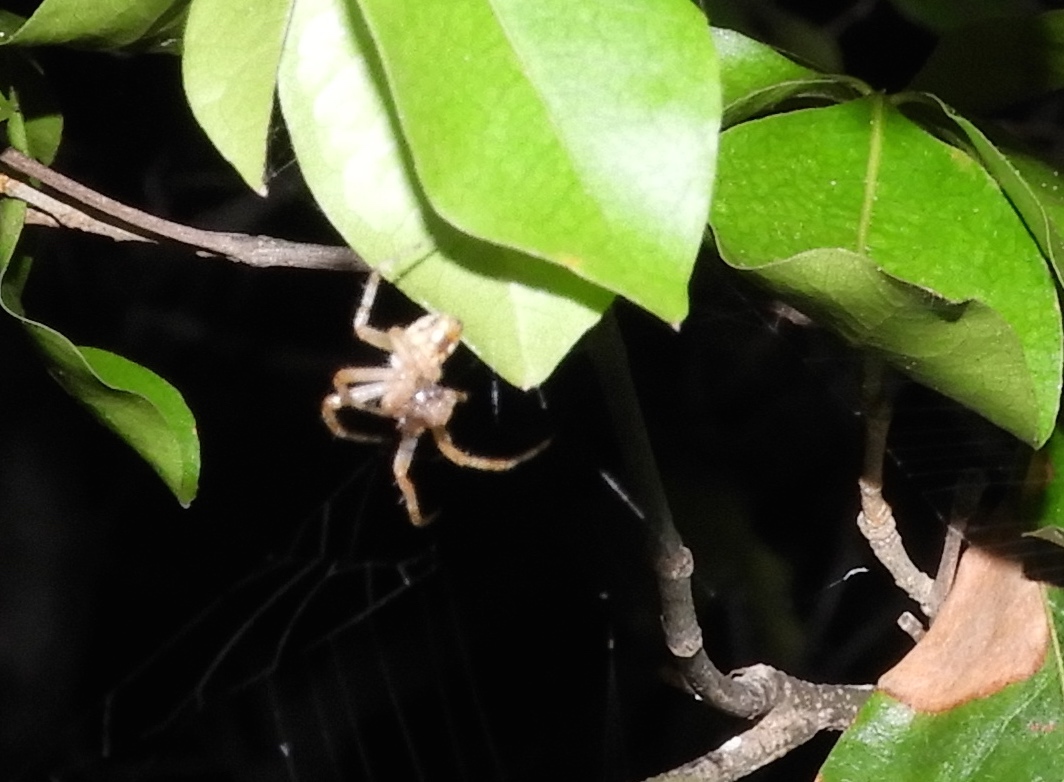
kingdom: Animalia
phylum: Arthropoda
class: Arachnida
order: Araneae
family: Araneidae
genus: Neoscona
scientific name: Neoscona
